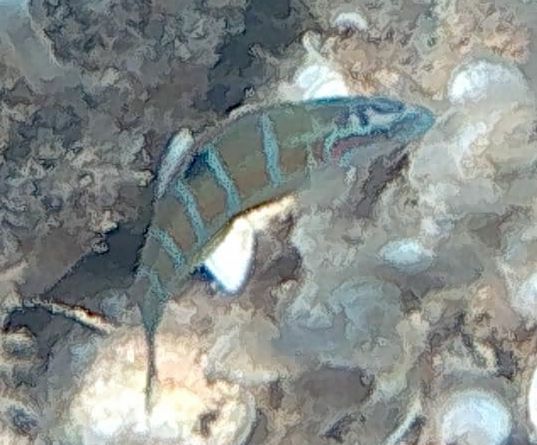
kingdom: Animalia
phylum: Chordata
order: Perciformes
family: Labridae
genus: Thalassoma
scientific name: Thalassoma pavo
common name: Ornate wrasse
